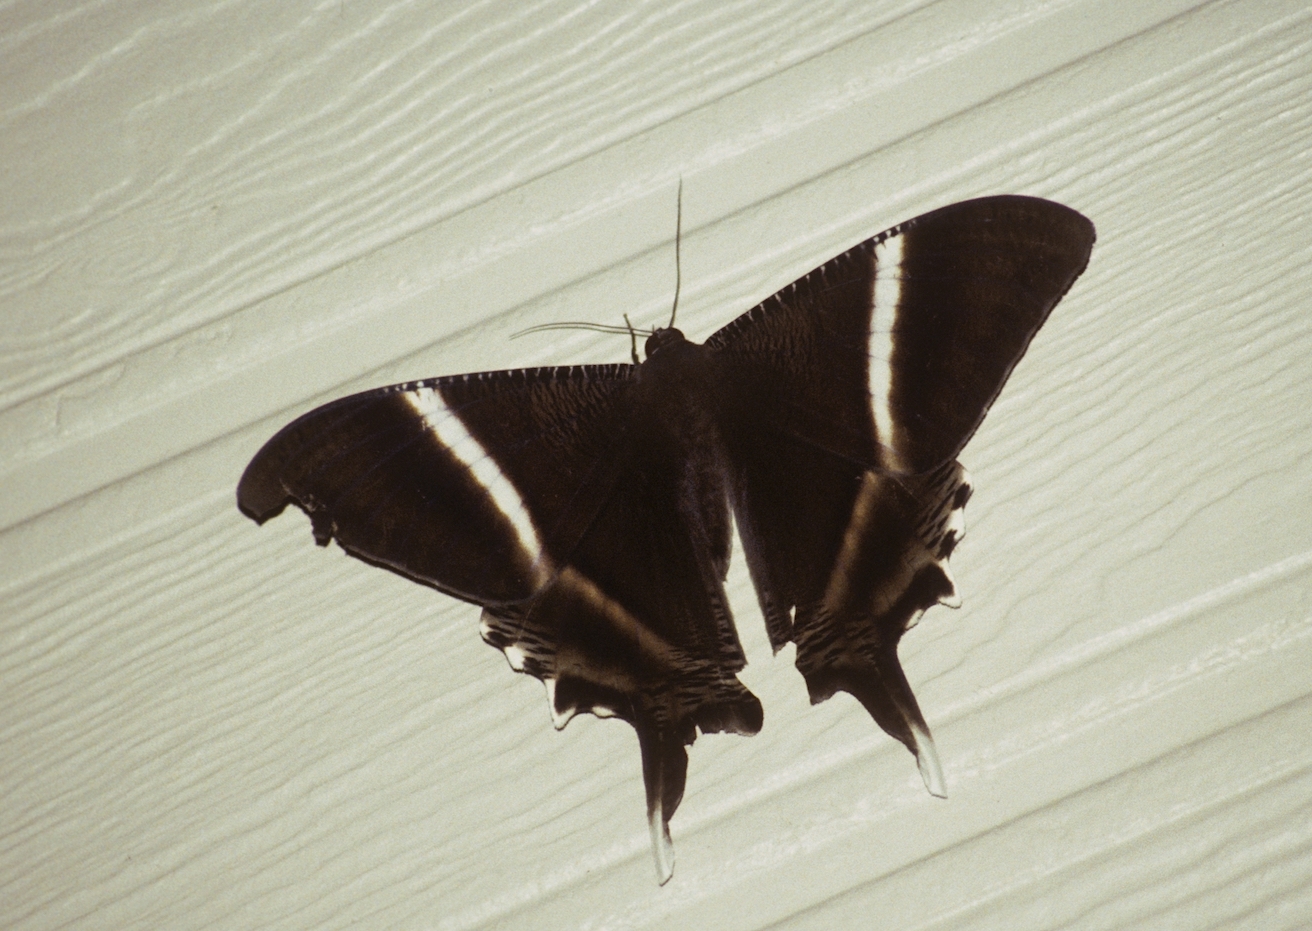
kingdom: Animalia
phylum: Arthropoda
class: Insecta
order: Lepidoptera
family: Uraniidae
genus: Lyssa
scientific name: Lyssa toxopeusi
